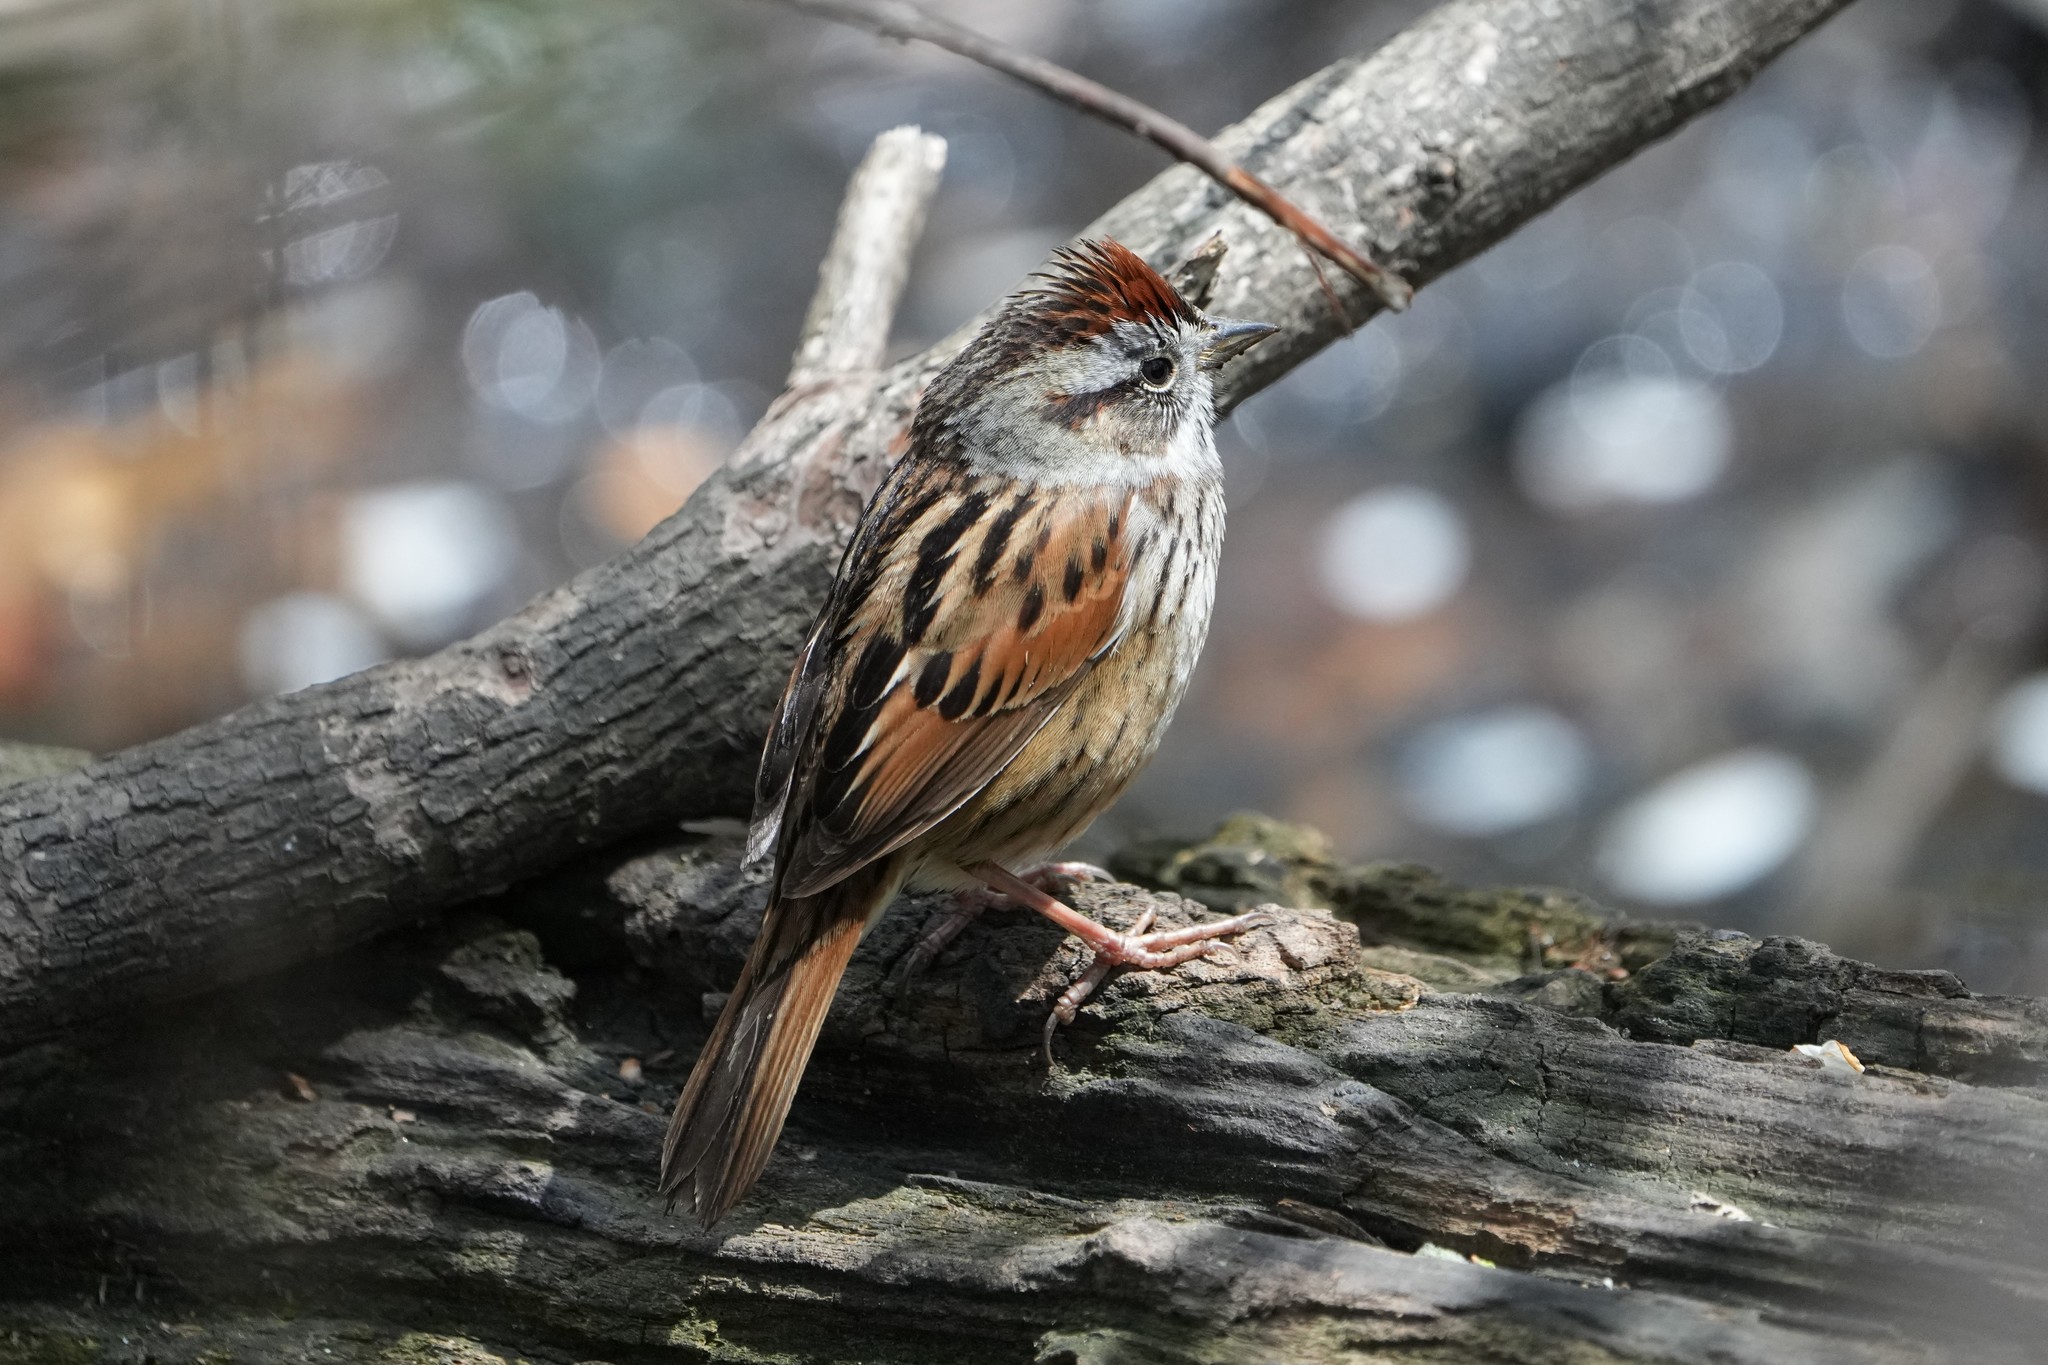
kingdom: Animalia
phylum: Chordata
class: Aves
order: Passeriformes
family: Passerellidae
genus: Melospiza
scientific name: Melospiza georgiana
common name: Swamp sparrow
